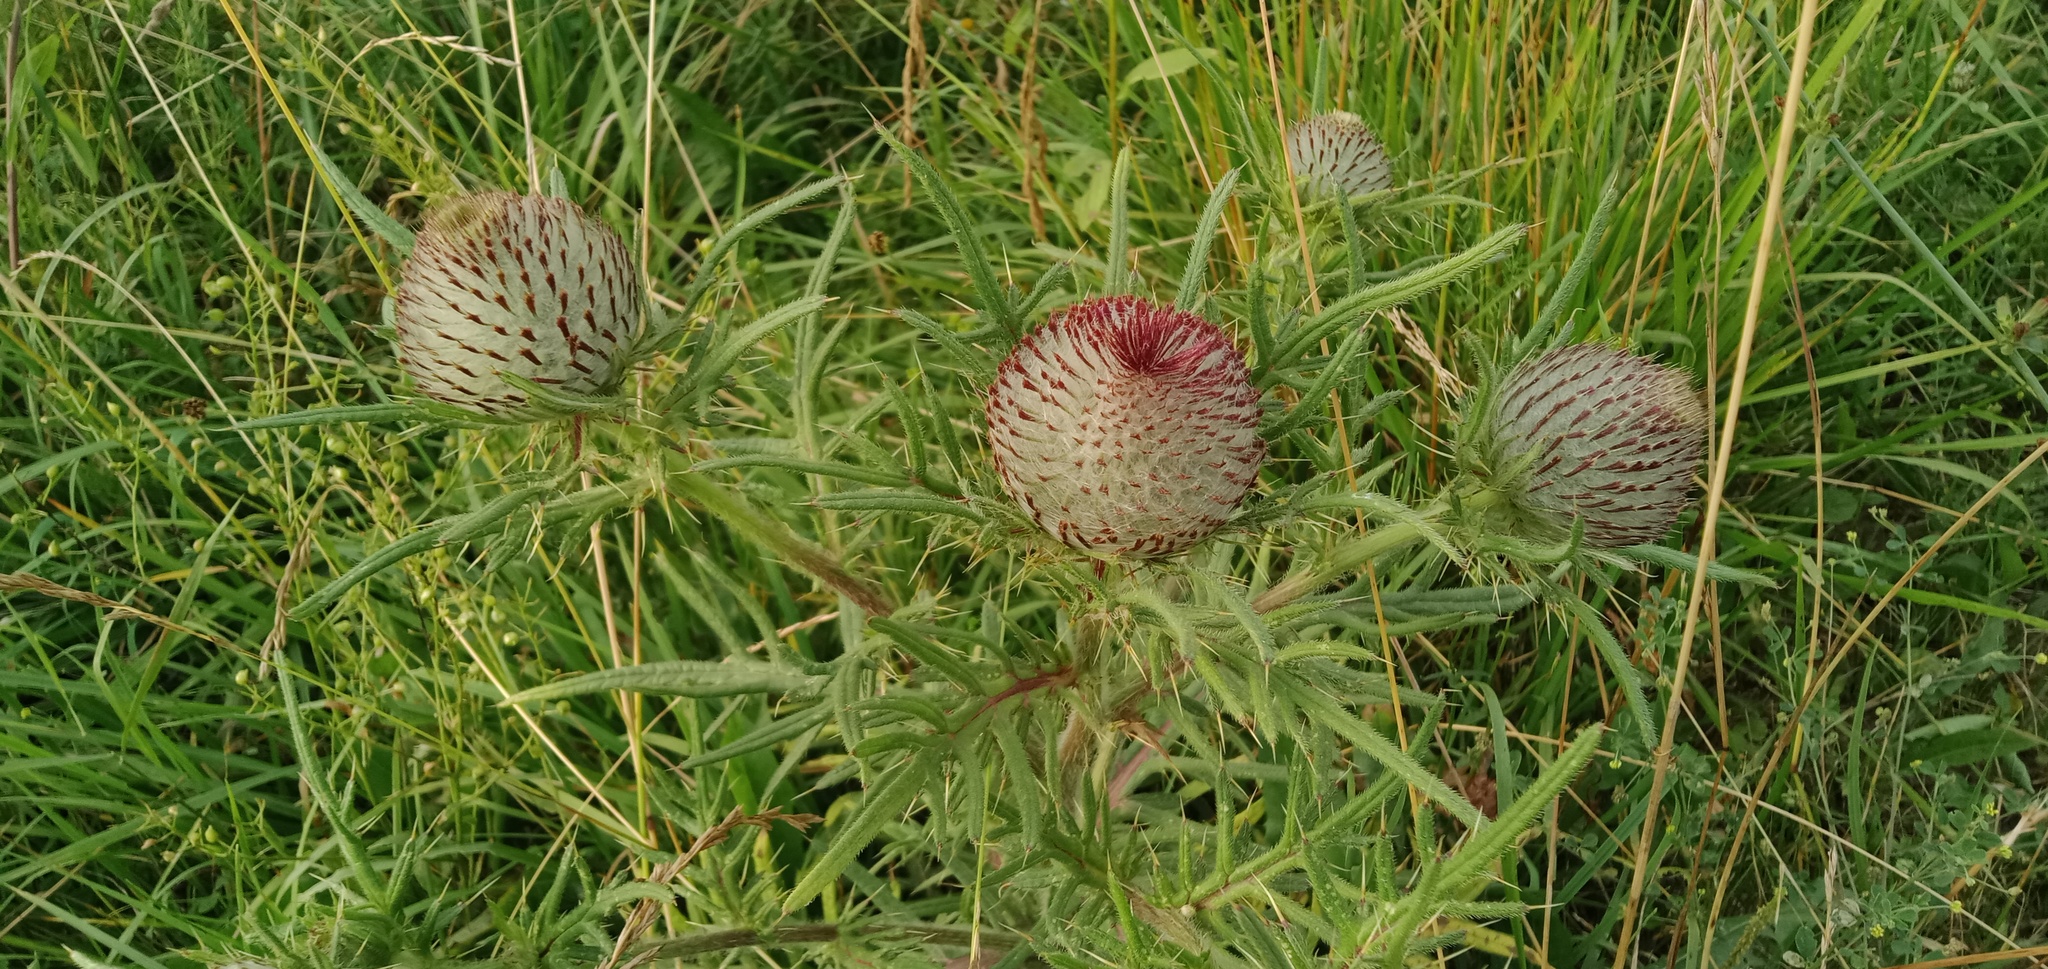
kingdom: Plantae
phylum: Tracheophyta
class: Magnoliopsida
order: Asterales
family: Asteraceae
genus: Lophiolepis
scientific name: Lophiolepis decussata
